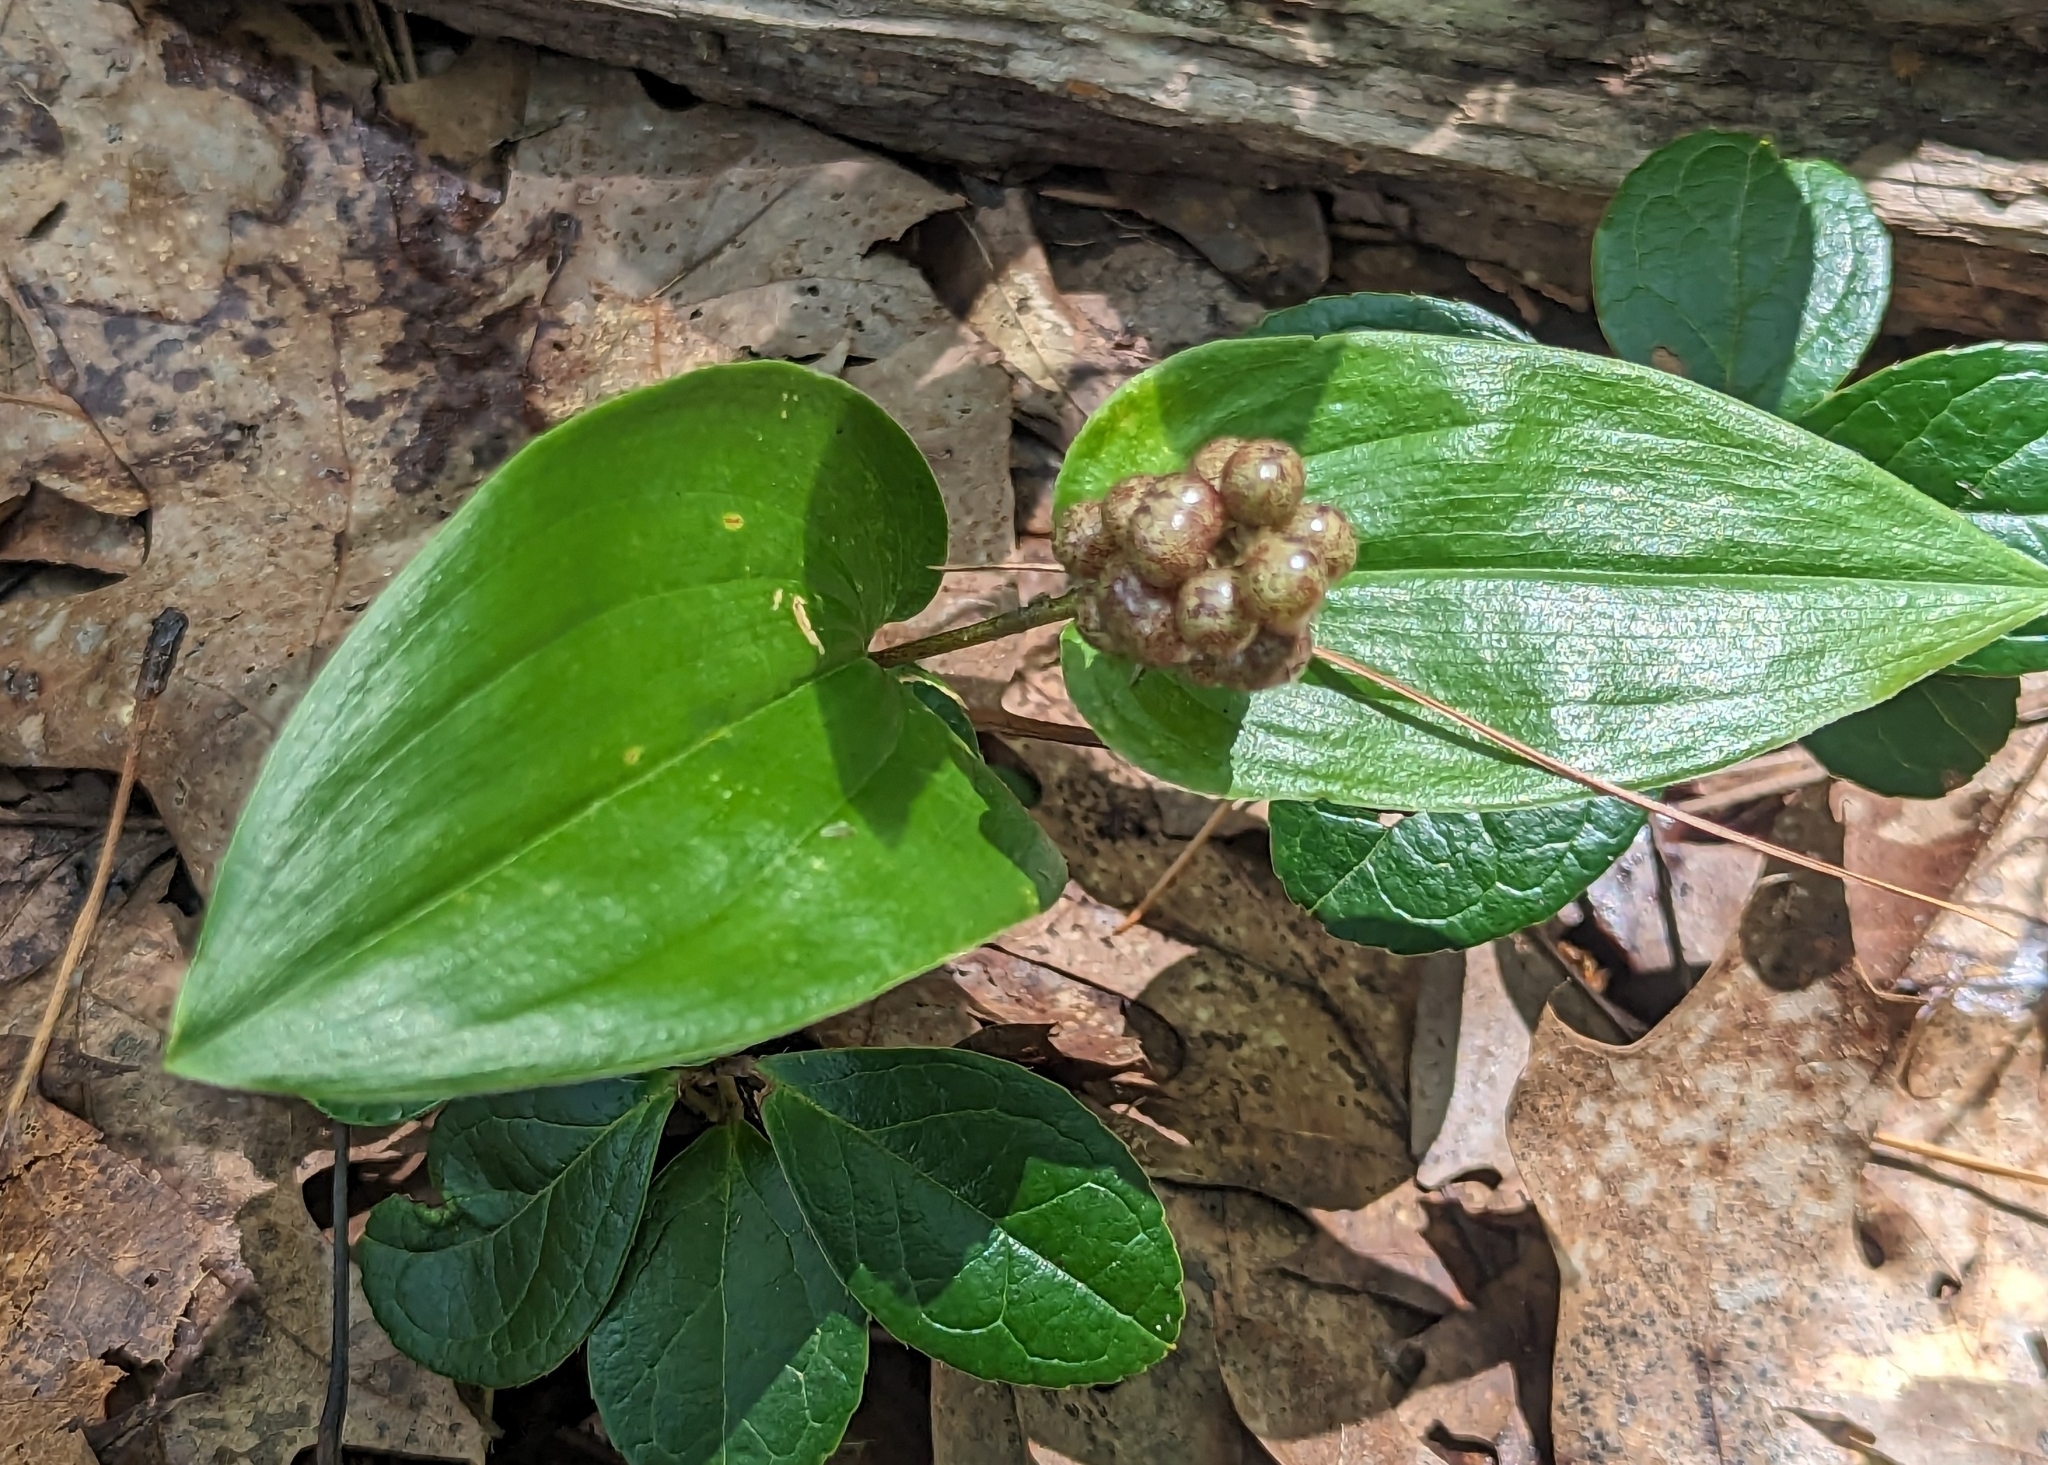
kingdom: Plantae
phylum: Tracheophyta
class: Liliopsida
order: Asparagales
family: Asparagaceae
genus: Maianthemum
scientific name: Maianthemum canadense
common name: False lily-of-the-valley
